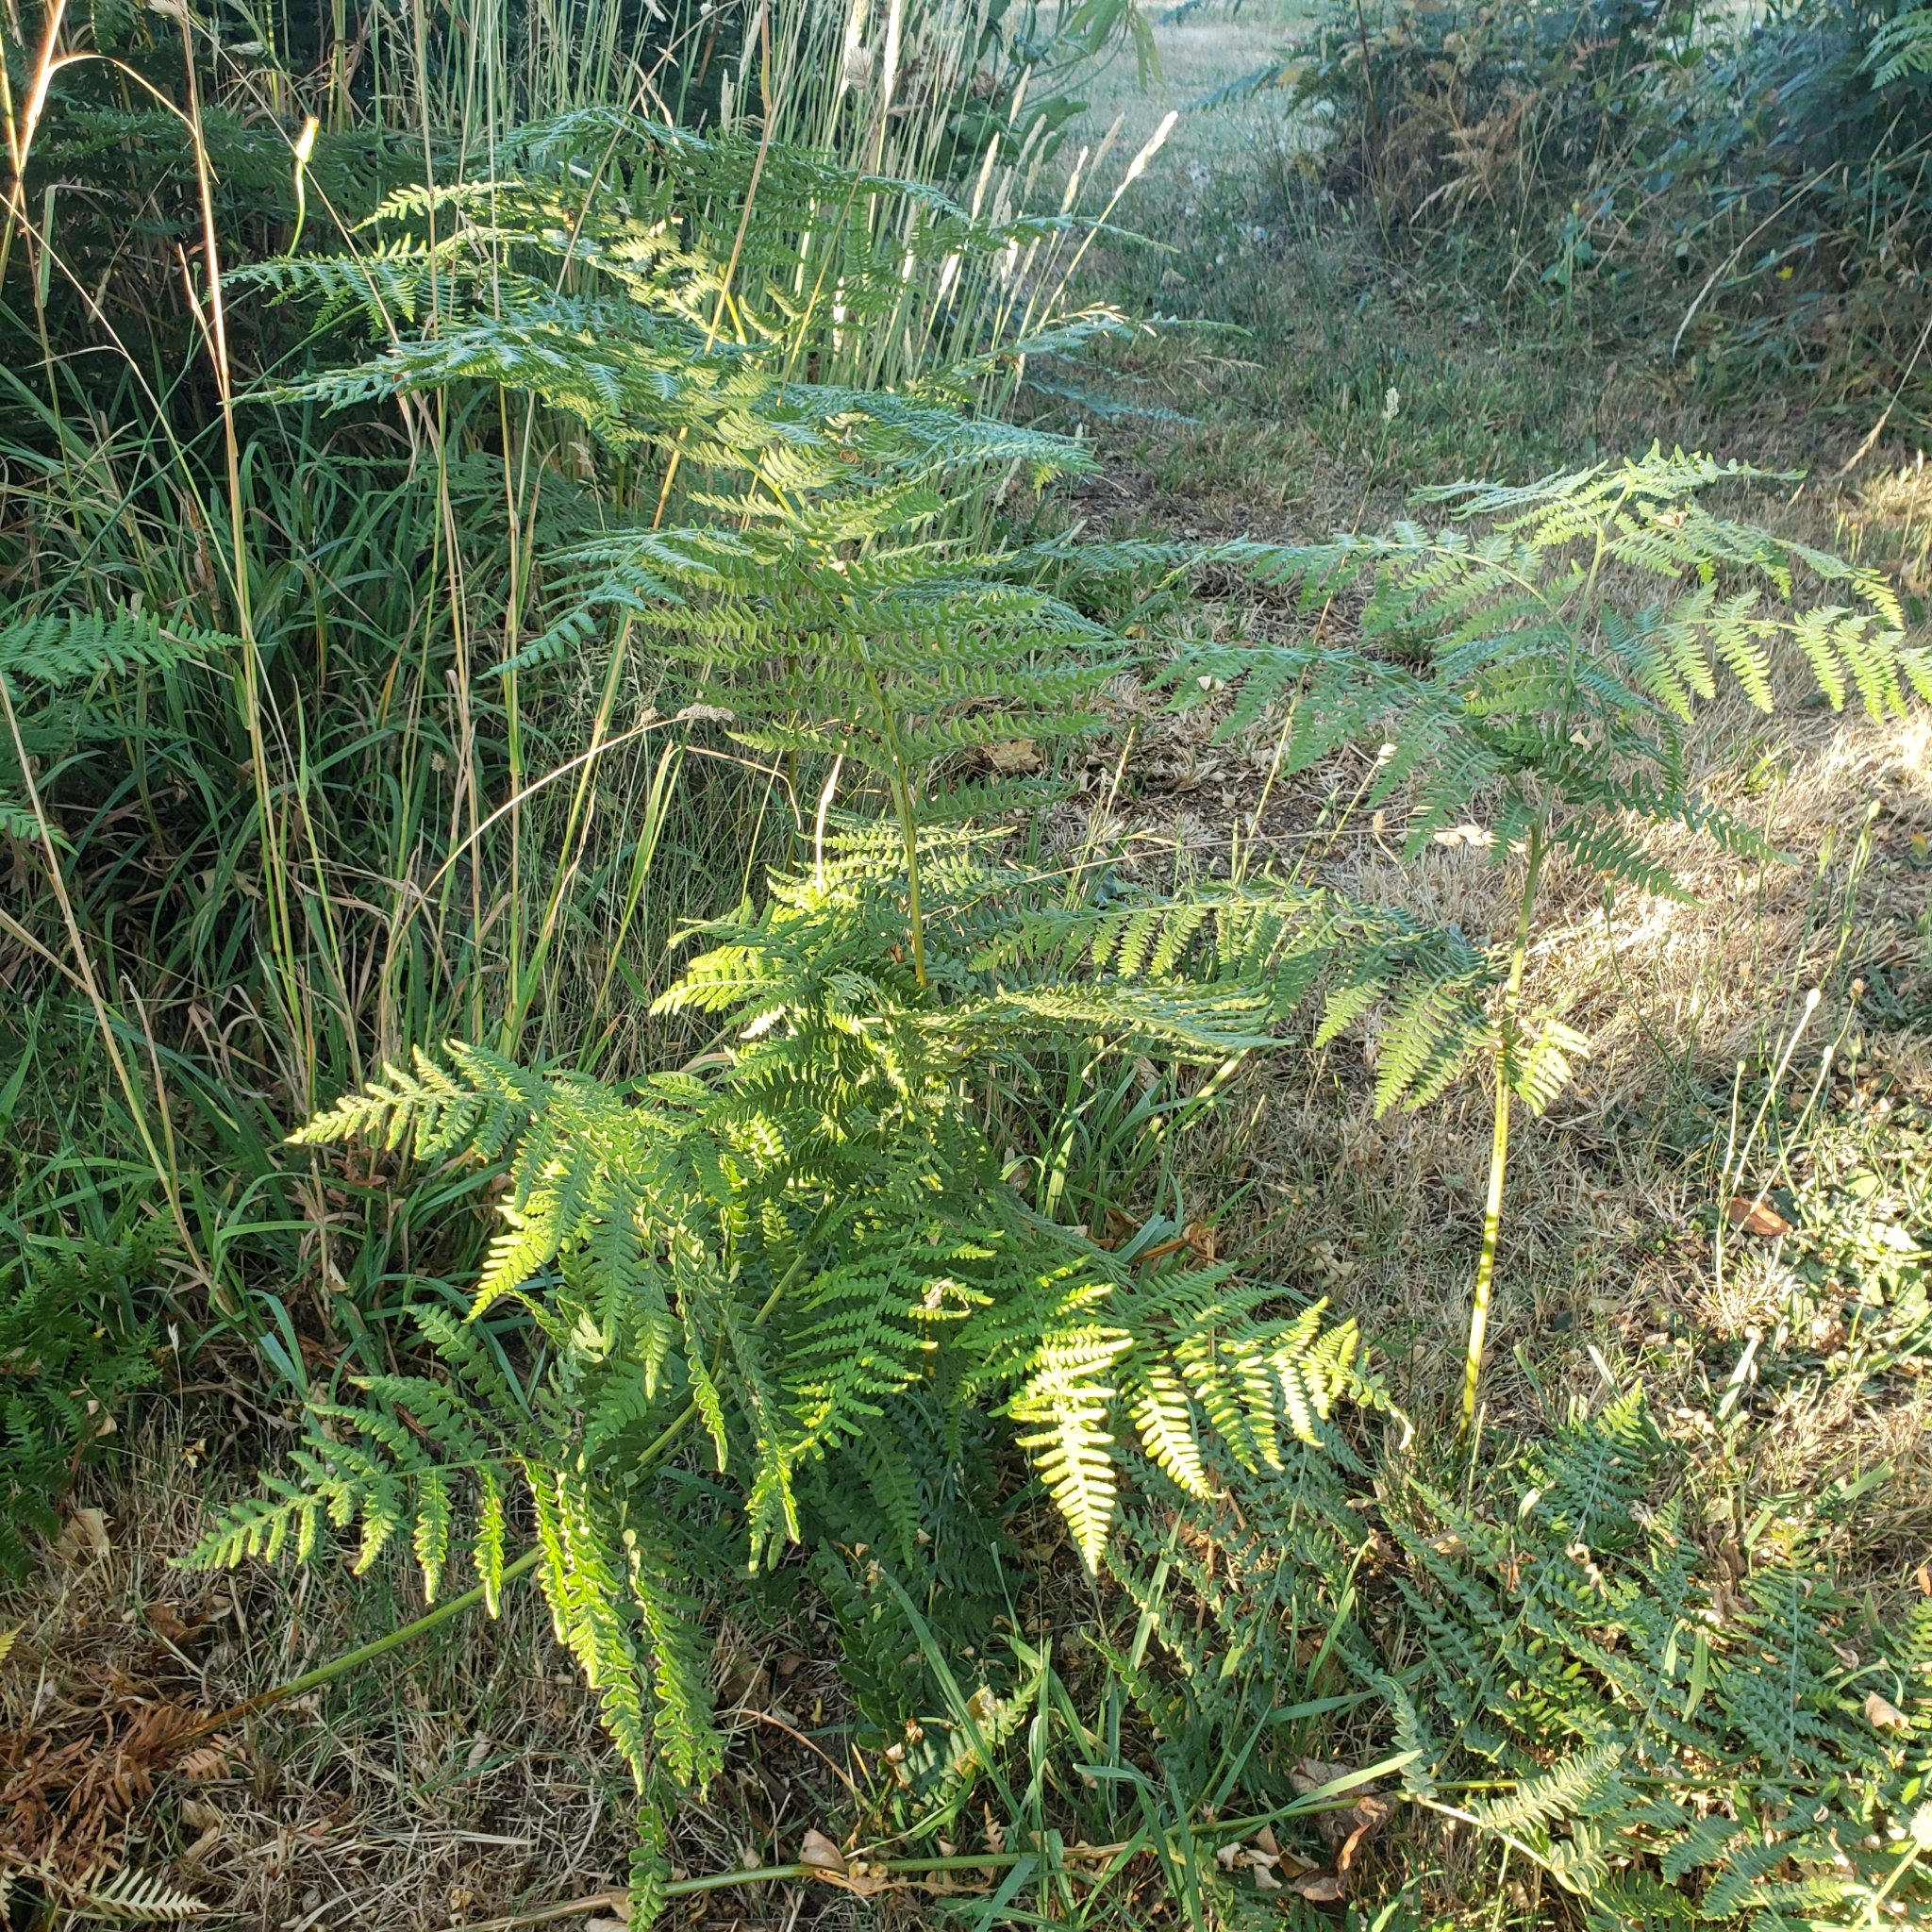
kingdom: Plantae
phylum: Tracheophyta
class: Polypodiopsida
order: Polypodiales
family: Dennstaedtiaceae
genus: Pteridium
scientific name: Pteridium aquilinum
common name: Bracken
